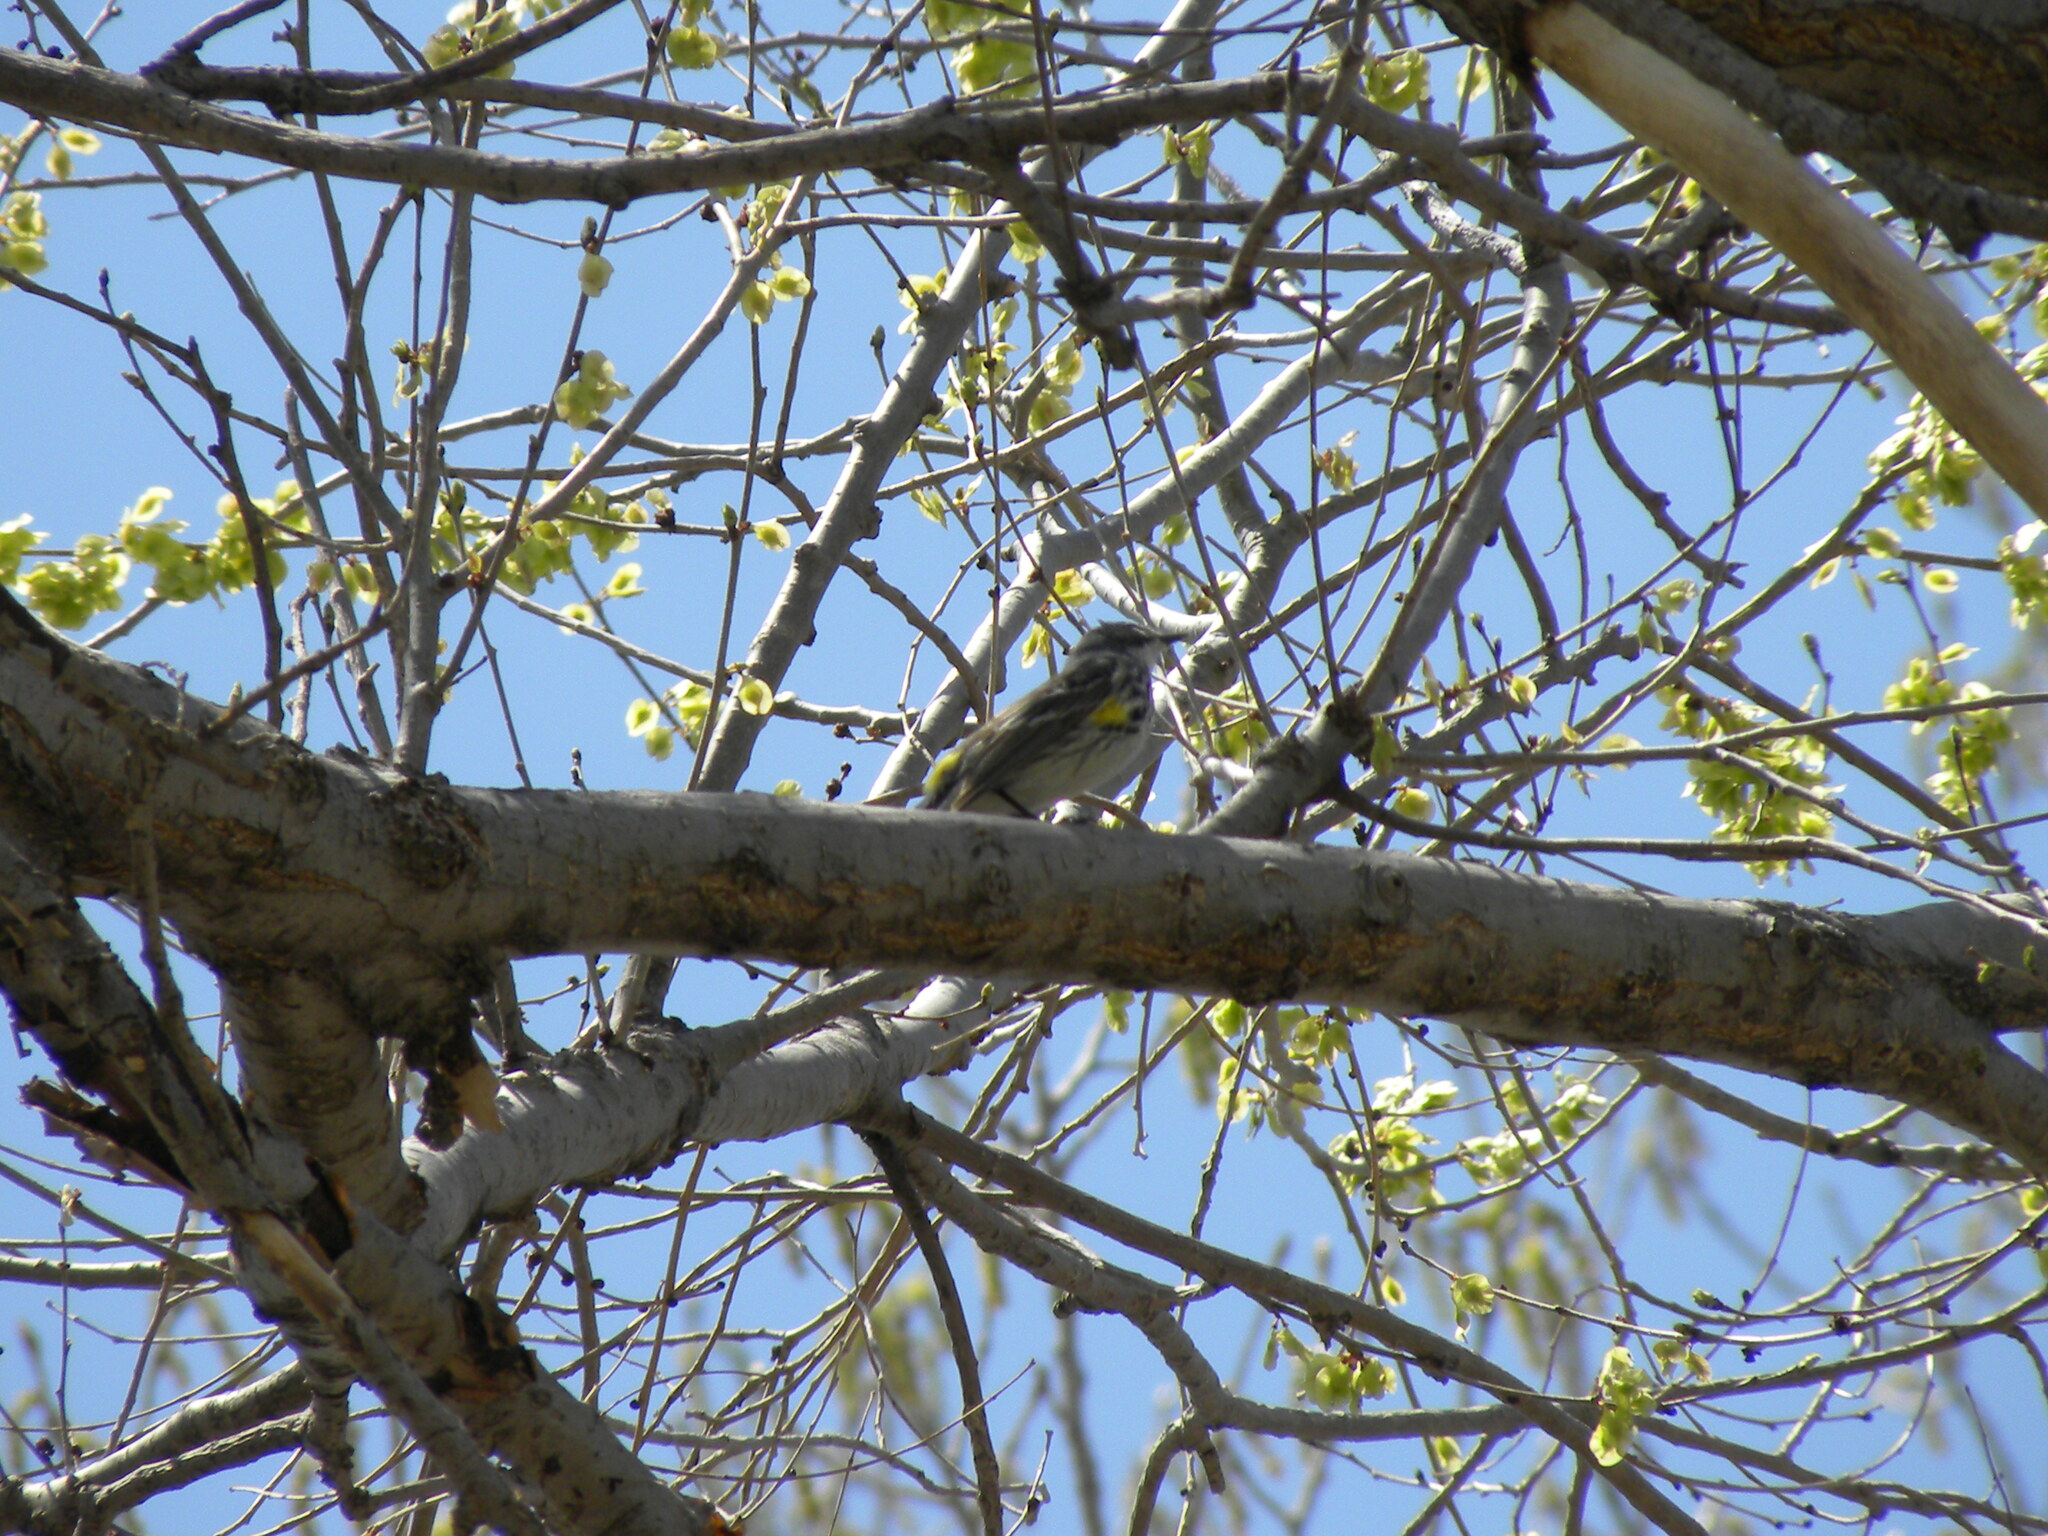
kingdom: Animalia
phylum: Chordata
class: Aves
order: Passeriformes
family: Parulidae
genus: Setophaga
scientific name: Setophaga coronata
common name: Myrtle warbler
